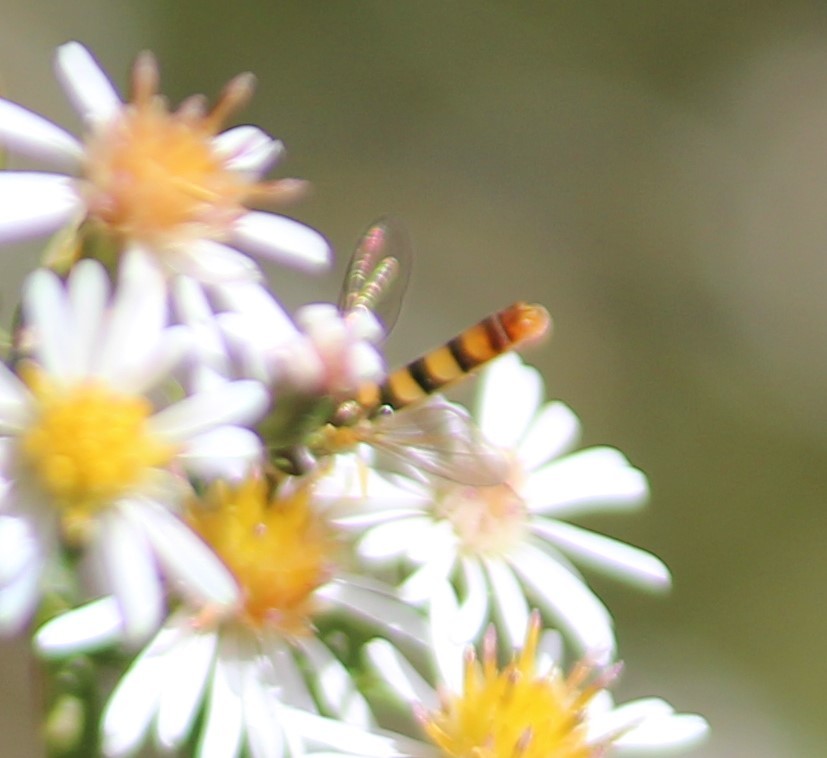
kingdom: Animalia
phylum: Arthropoda
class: Insecta
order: Diptera
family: Syrphidae
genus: Sphaerophoria
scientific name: Sphaerophoria contigua
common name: Tufted globetail
